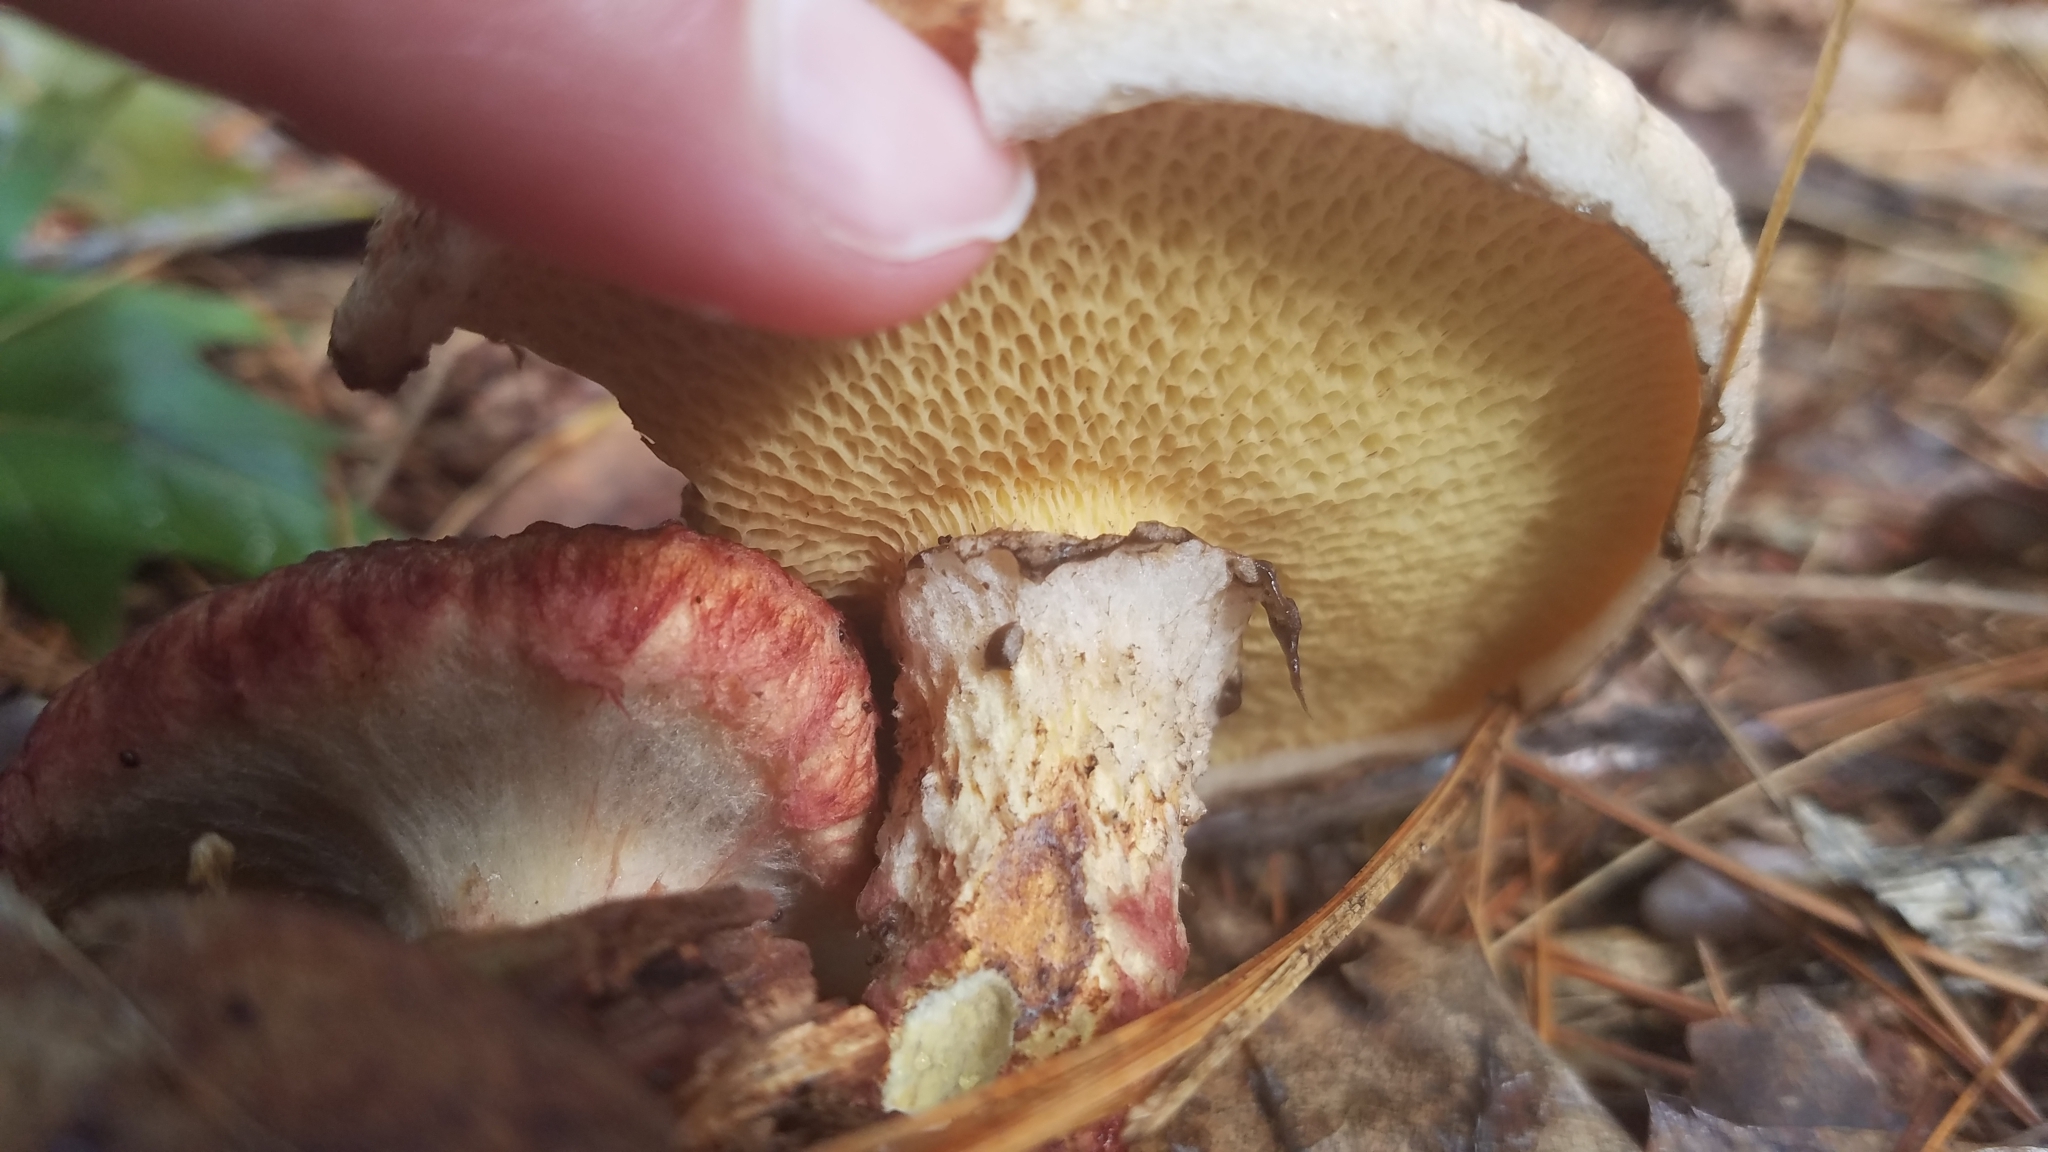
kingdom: Fungi
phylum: Basidiomycota
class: Agaricomycetes
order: Boletales
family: Suillaceae
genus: Suillus
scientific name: Suillus spraguei
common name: Painted suillus
